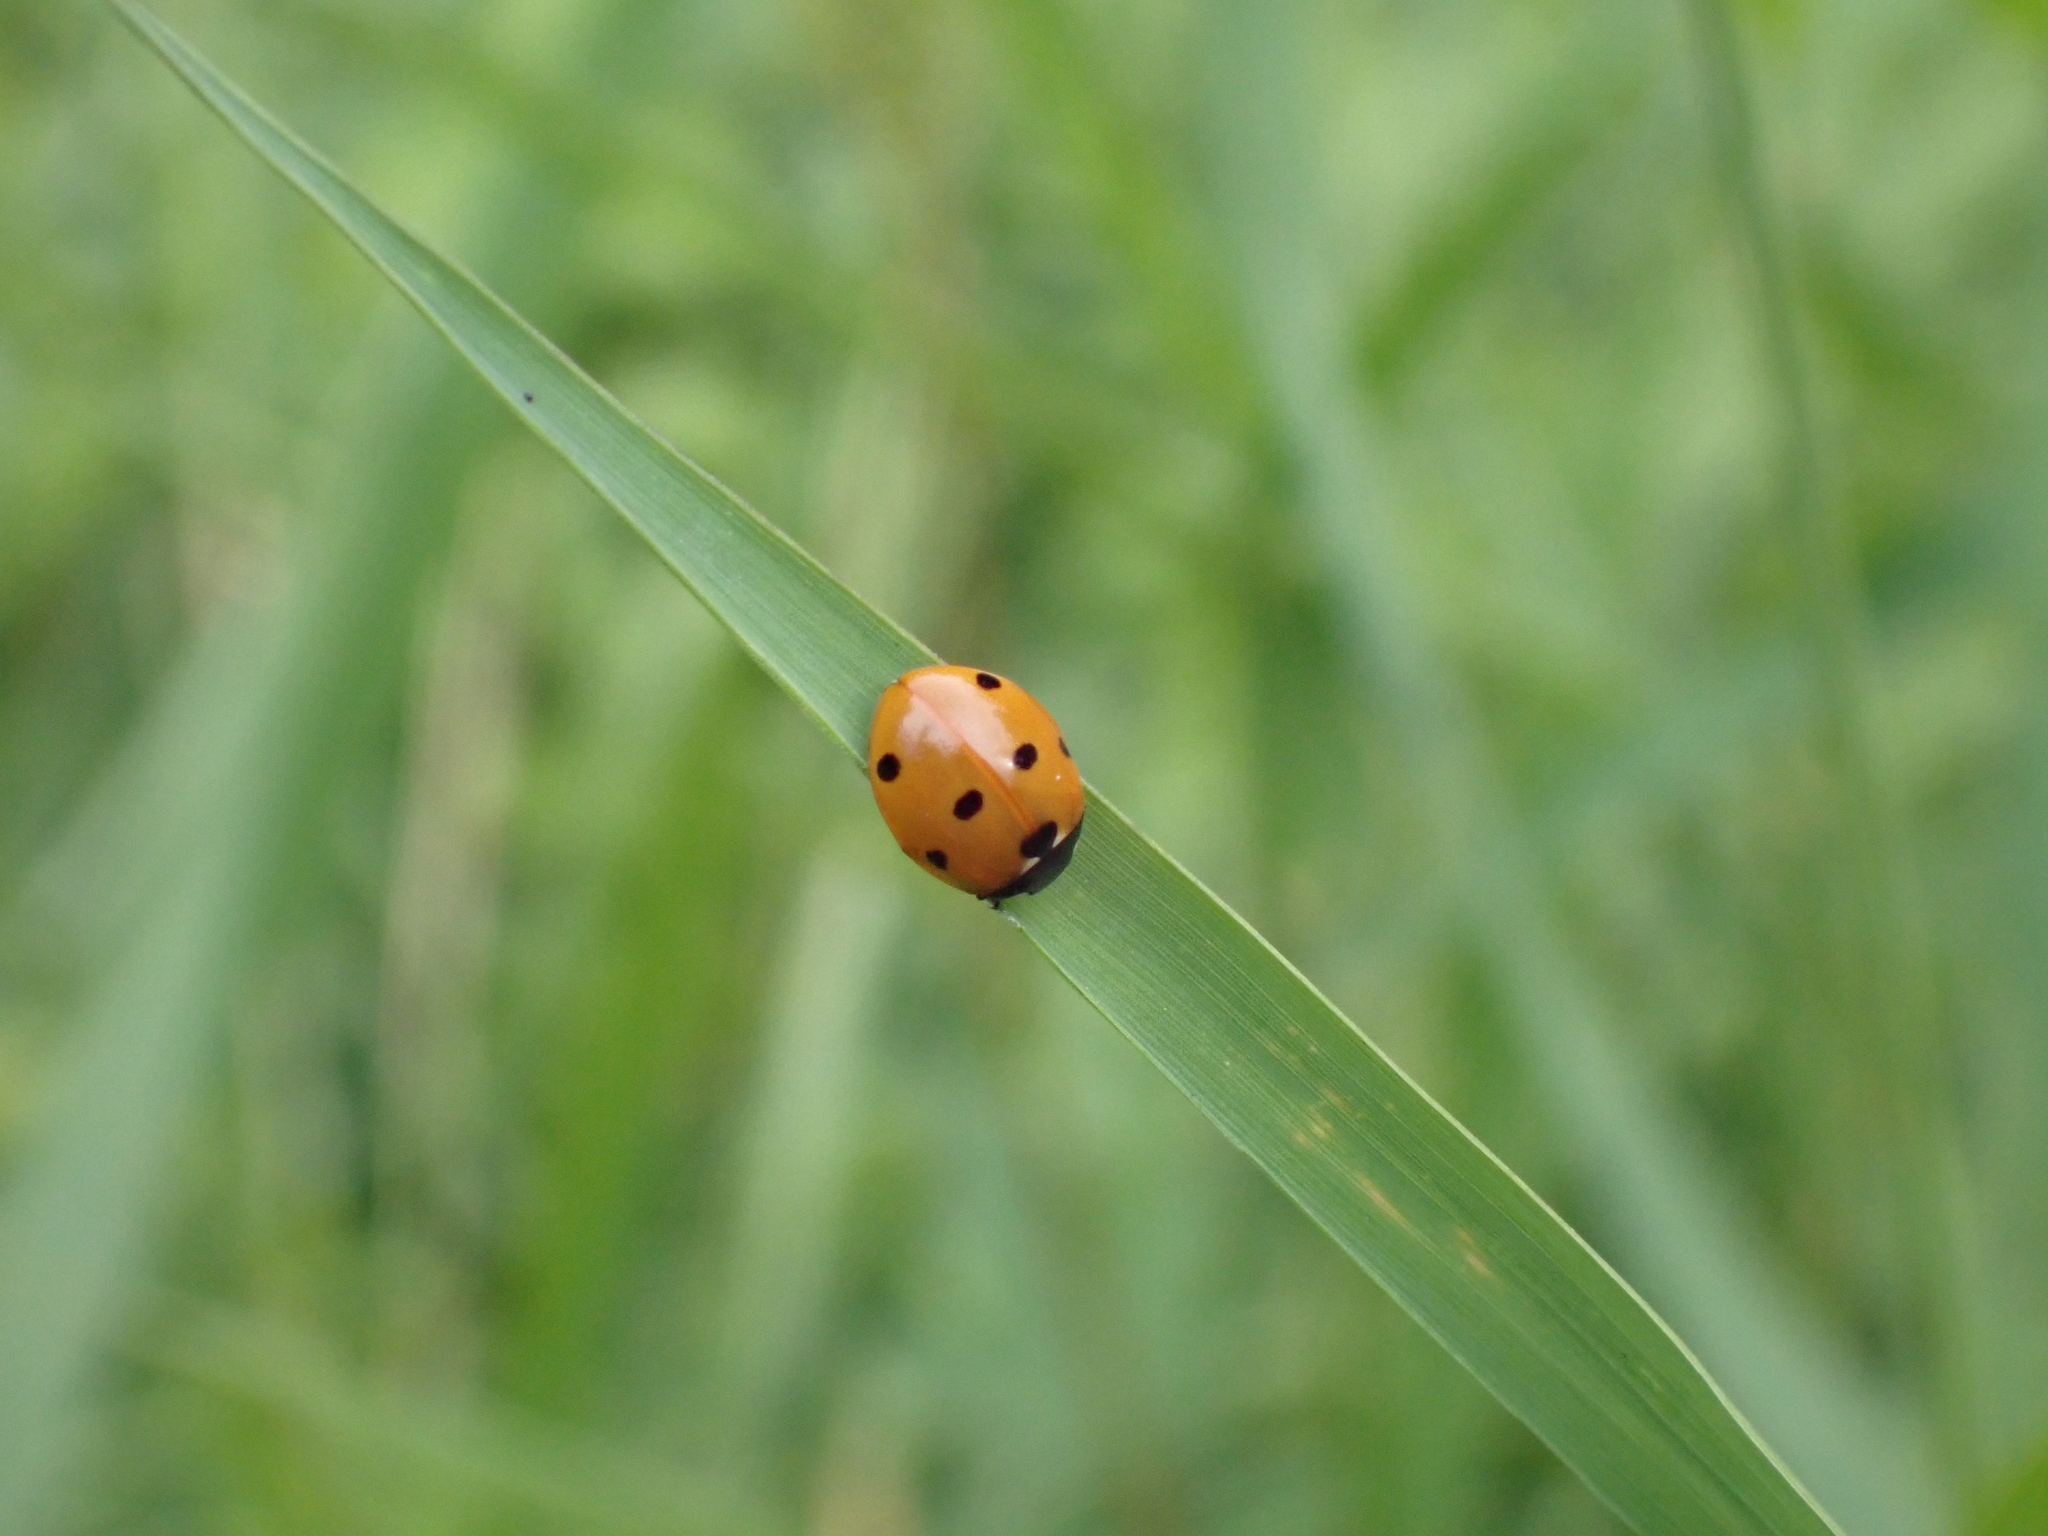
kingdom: Animalia
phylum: Arthropoda
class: Insecta
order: Coleoptera
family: Coccinellidae
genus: Coccinella
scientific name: Coccinella septempunctata
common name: Sevenspotted lady beetle
